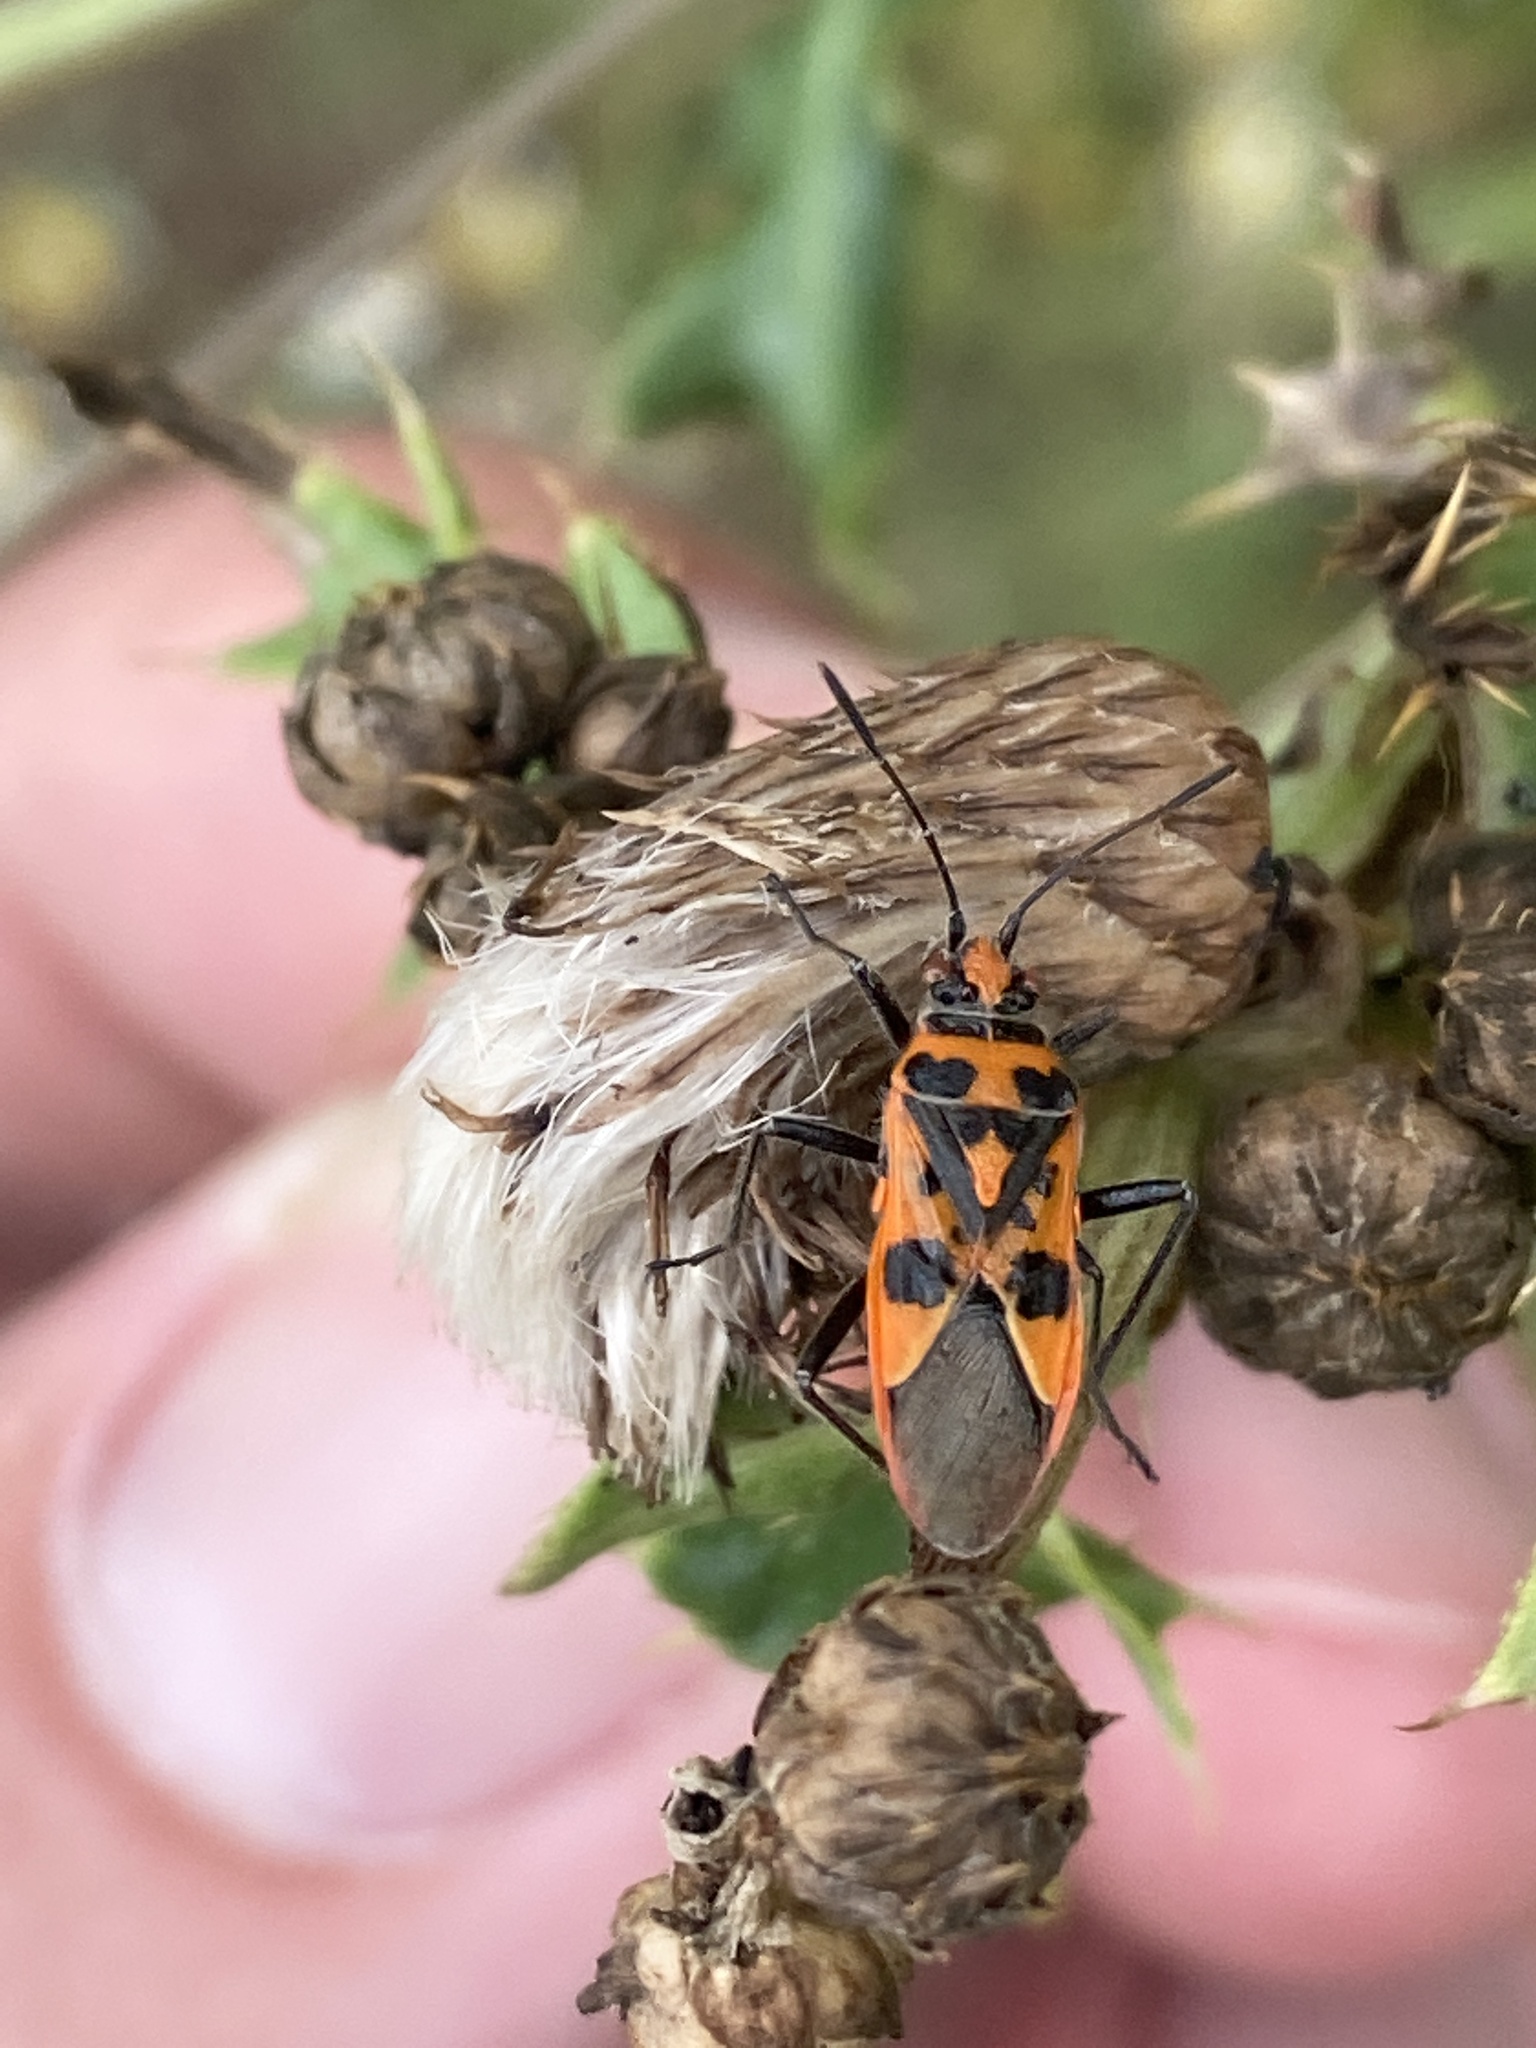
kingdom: Animalia
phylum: Arthropoda
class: Insecta
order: Hemiptera
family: Rhopalidae
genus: Corizus
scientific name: Corizus hyoscyami
